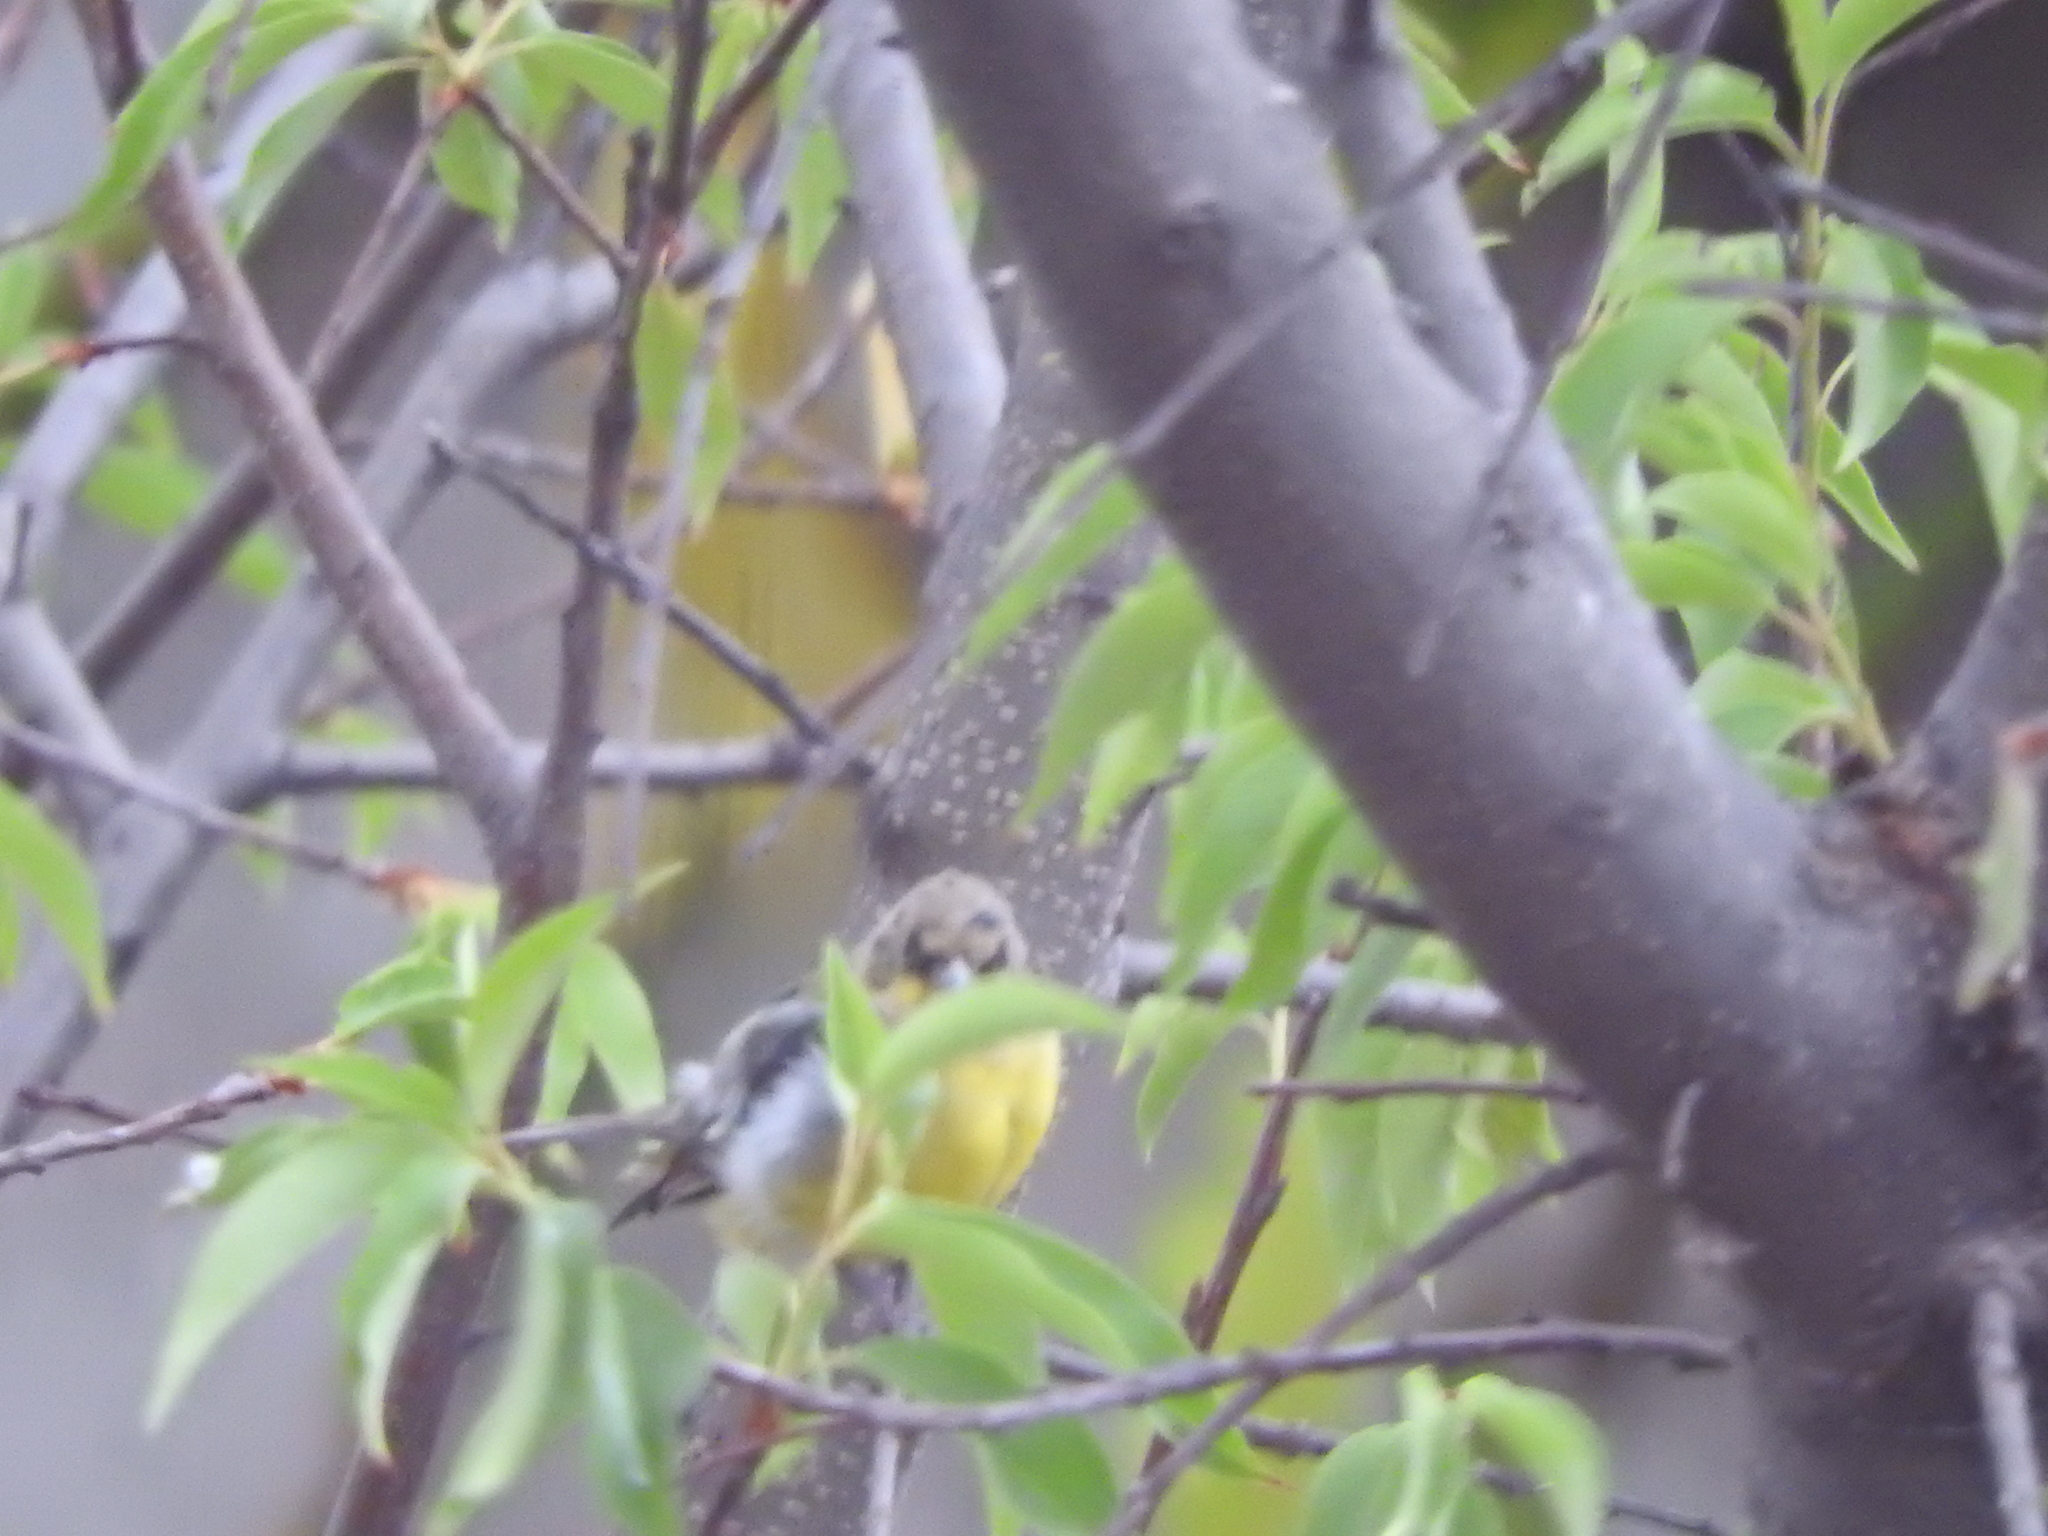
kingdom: Animalia
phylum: Chordata
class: Aves
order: Passeriformes
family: Fringillidae
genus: Spinus
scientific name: Spinus psaltria
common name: Lesser goldfinch
